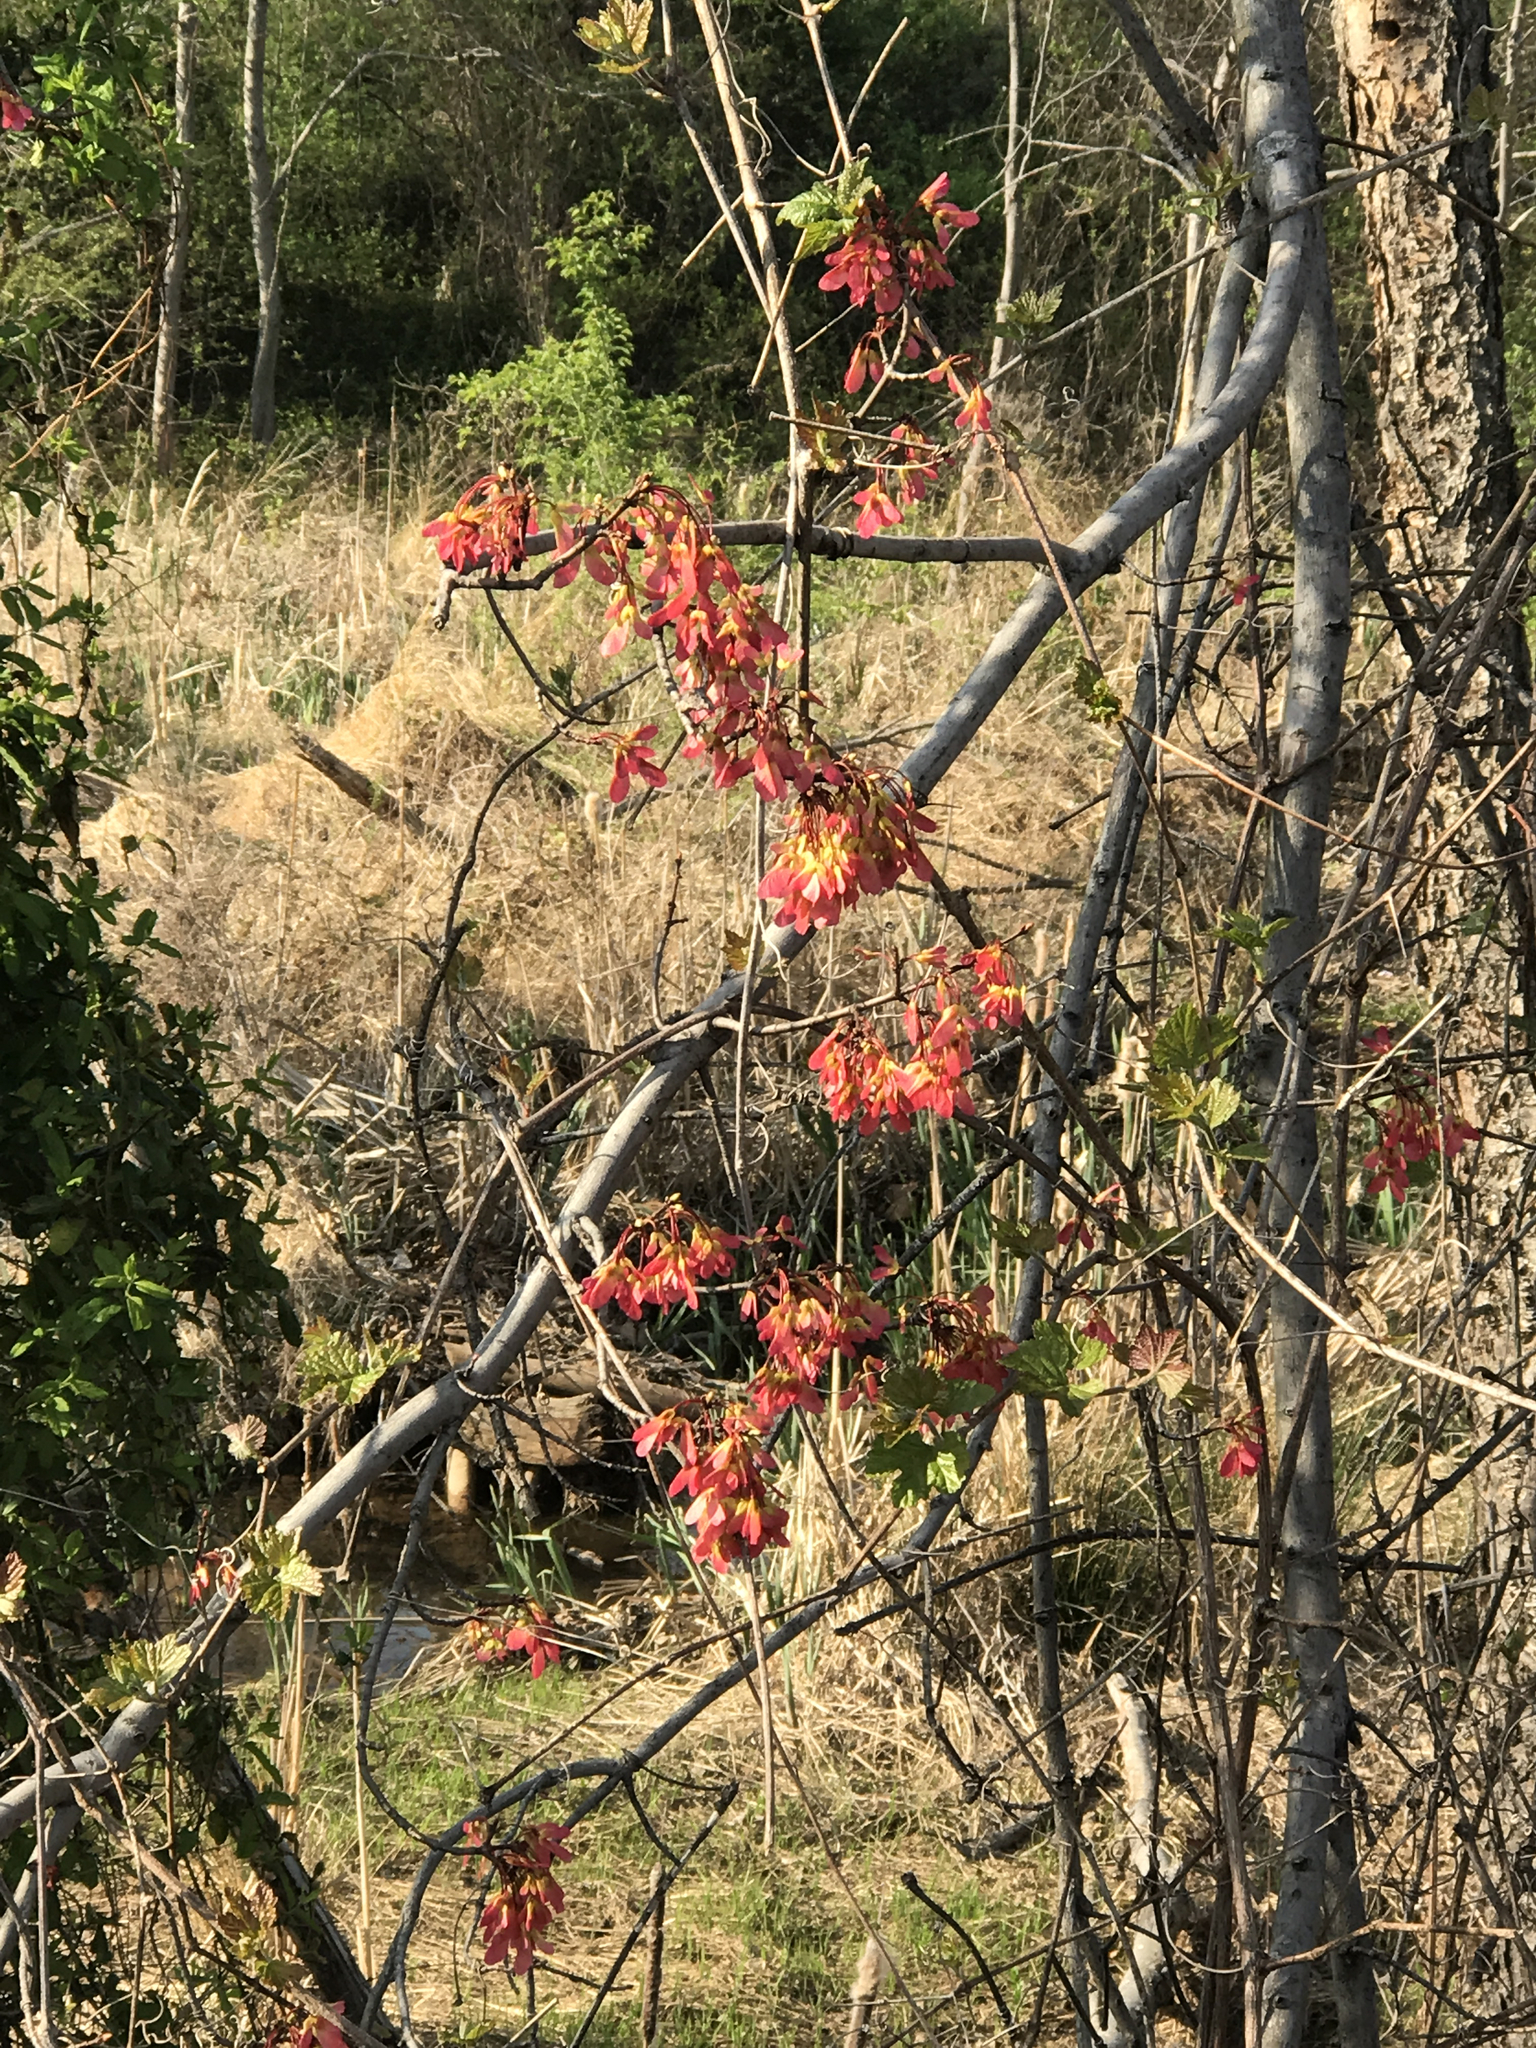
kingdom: Plantae
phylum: Tracheophyta
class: Magnoliopsida
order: Sapindales
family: Sapindaceae
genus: Acer
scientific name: Acer rubrum
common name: Red maple
